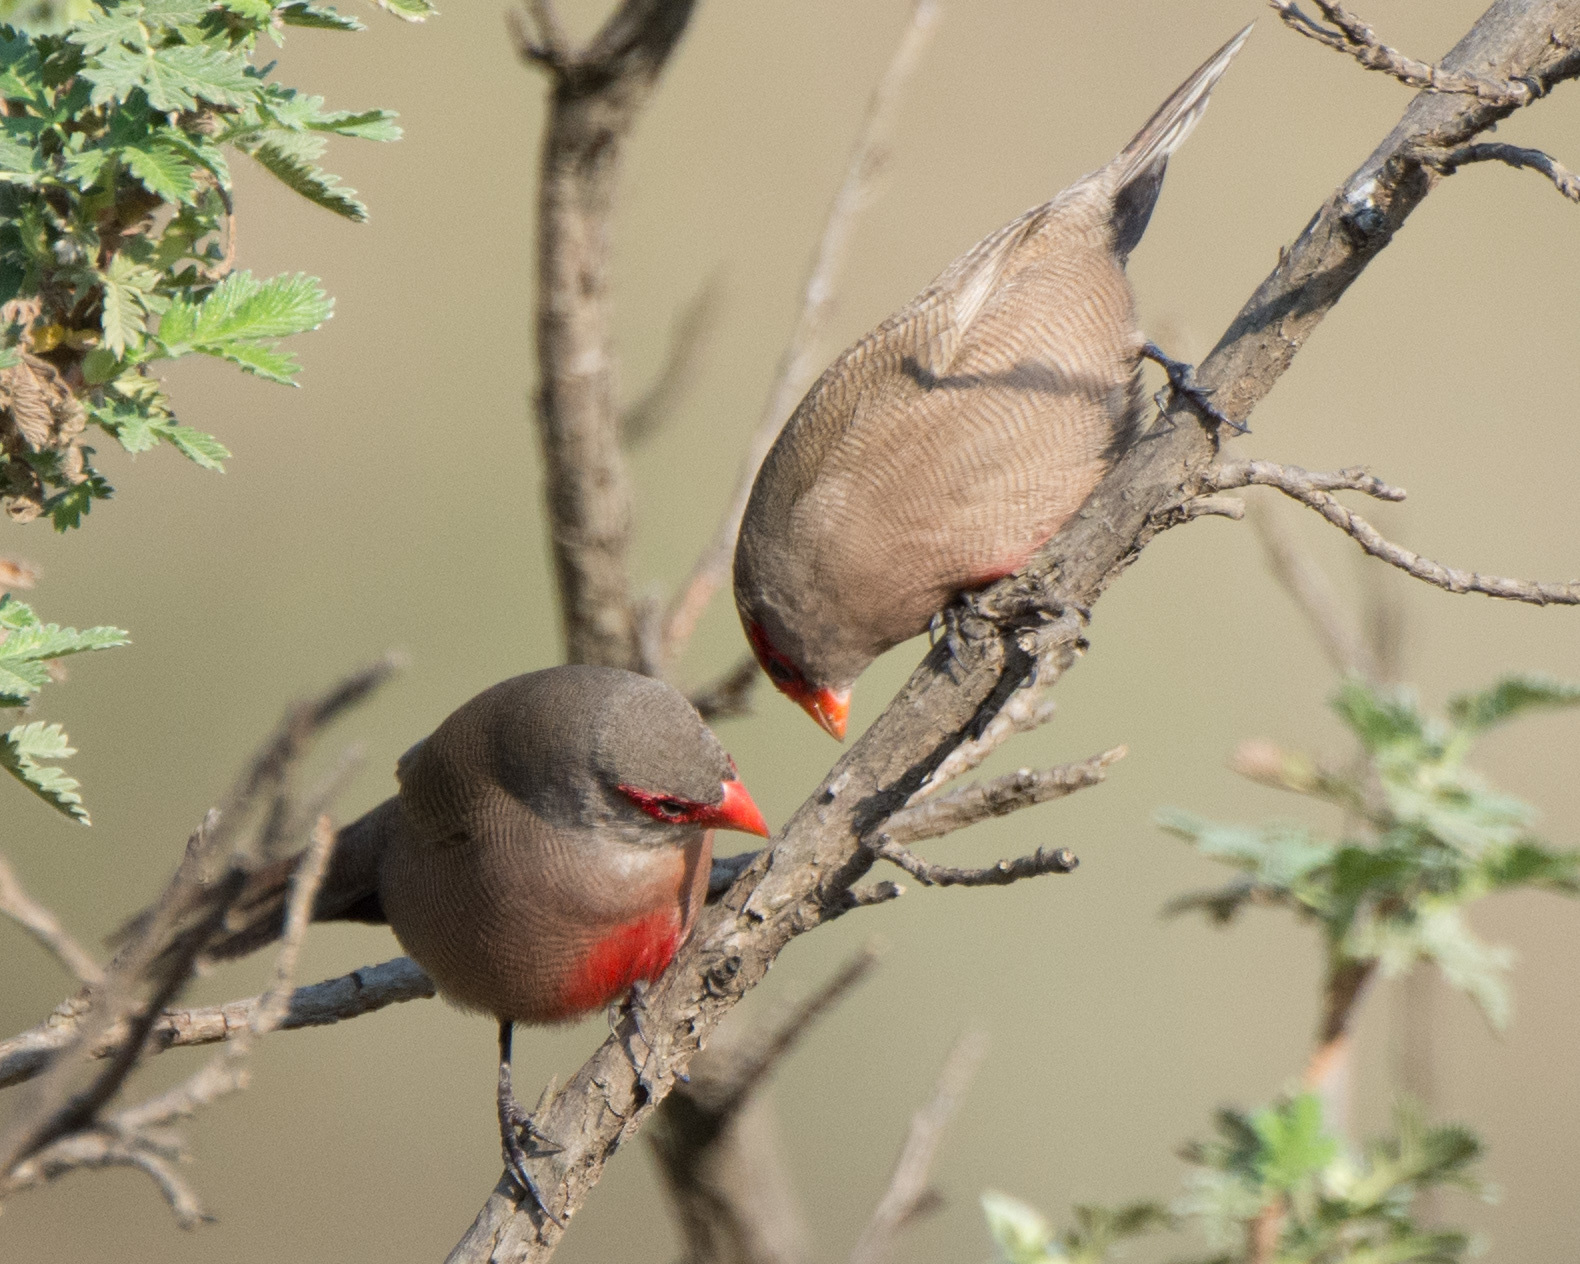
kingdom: Animalia
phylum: Chordata
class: Aves
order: Passeriformes
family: Estrildidae
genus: Estrilda
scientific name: Estrilda astrild
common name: Common waxbill
